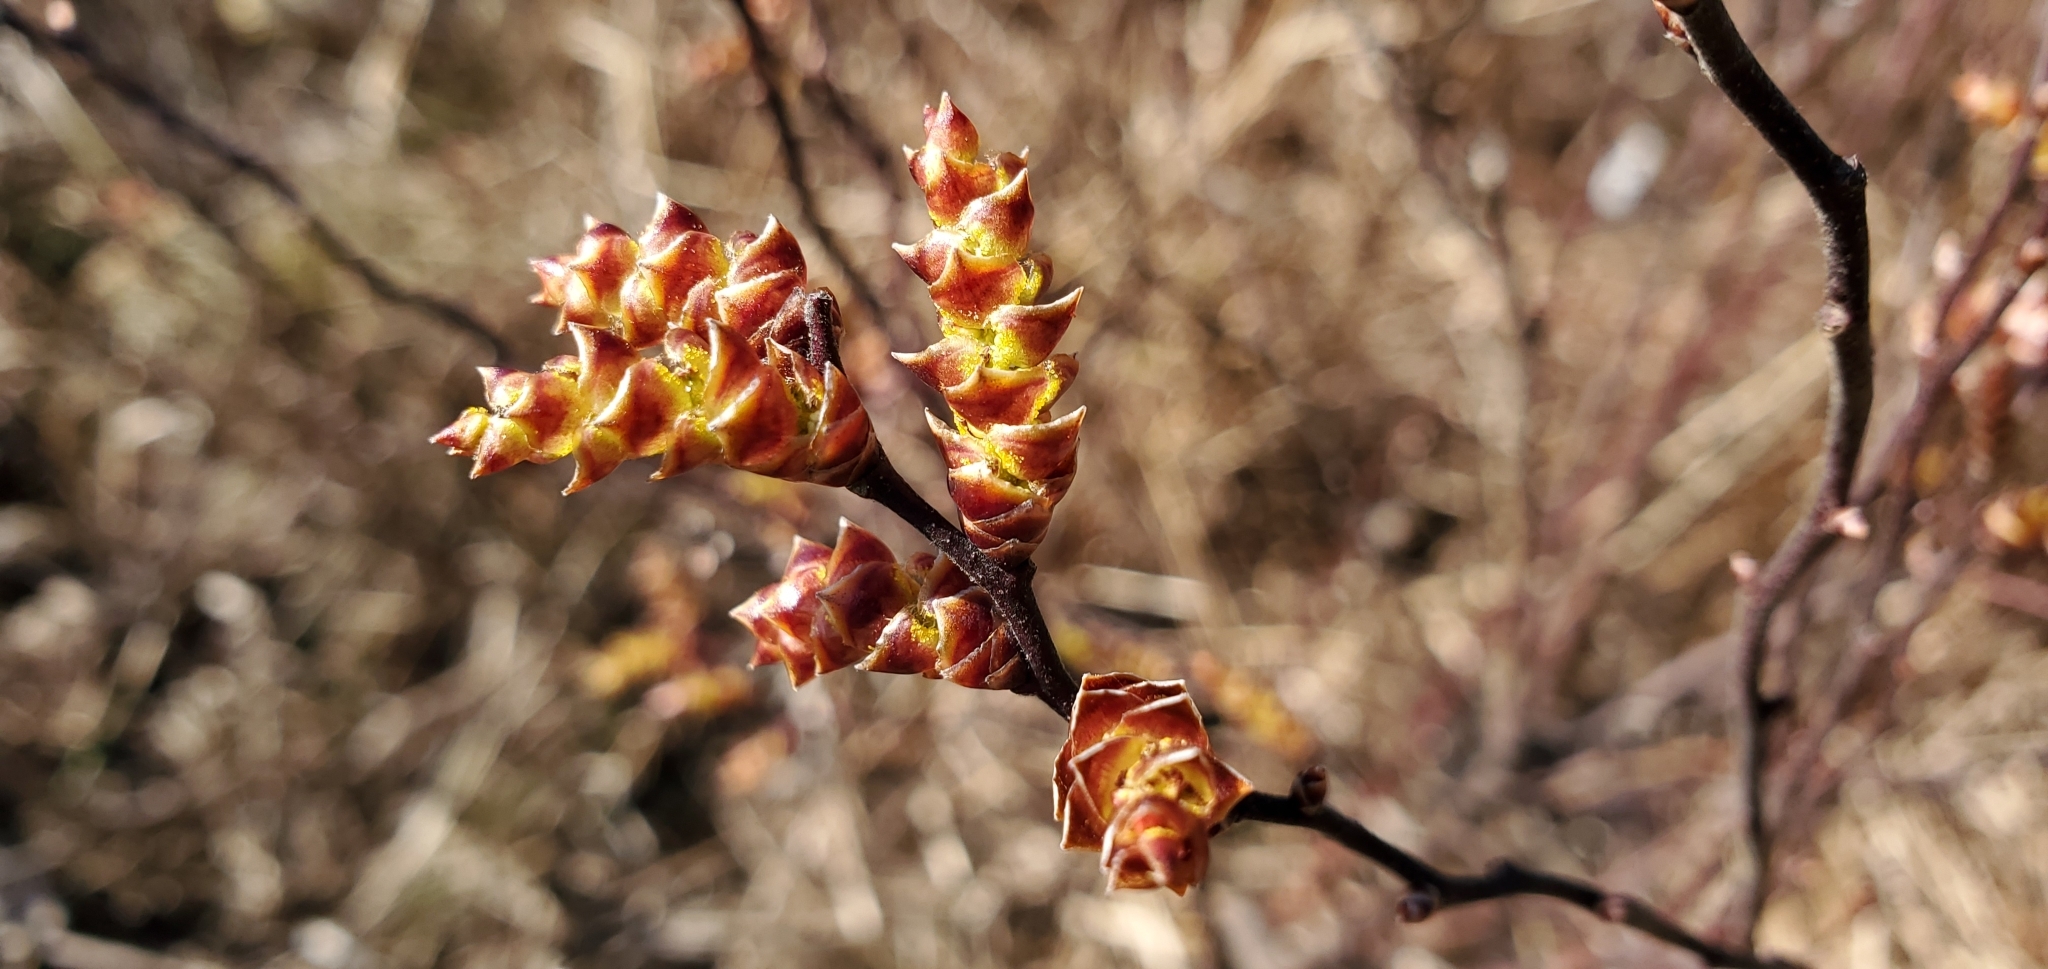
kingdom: Plantae
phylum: Tracheophyta
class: Magnoliopsida
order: Fagales
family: Myricaceae
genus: Myrica
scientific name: Myrica gale
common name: Sweet gale
